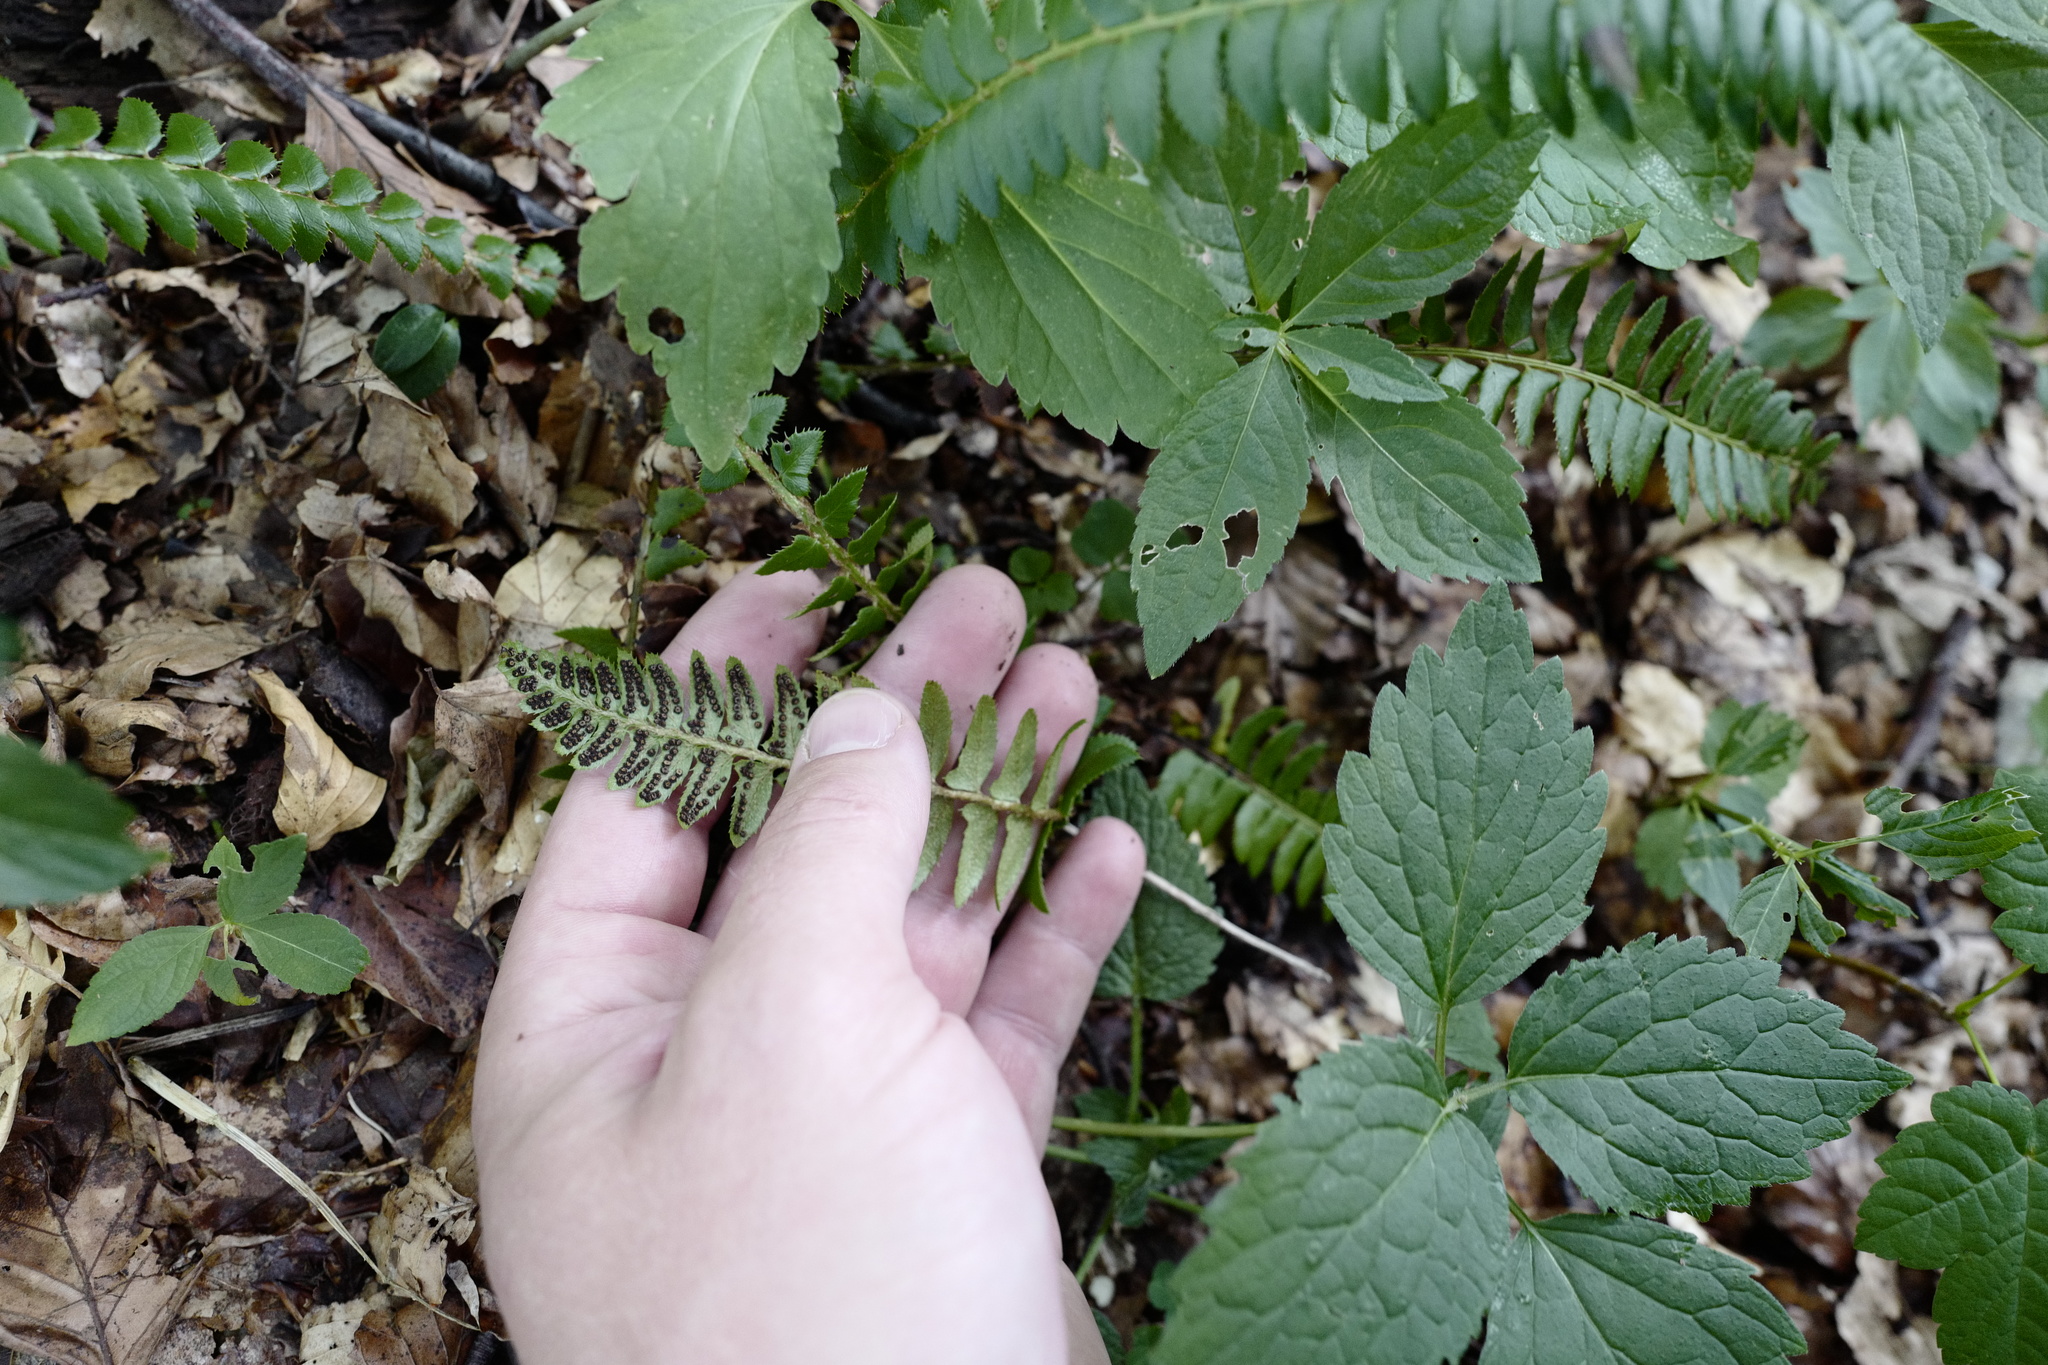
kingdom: Plantae
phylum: Tracheophyta
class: Polypodiopsida
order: Polypodiales
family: Dryopteridaceae
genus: Polystichum
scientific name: Polystichum lonchitis
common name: Holly fern
